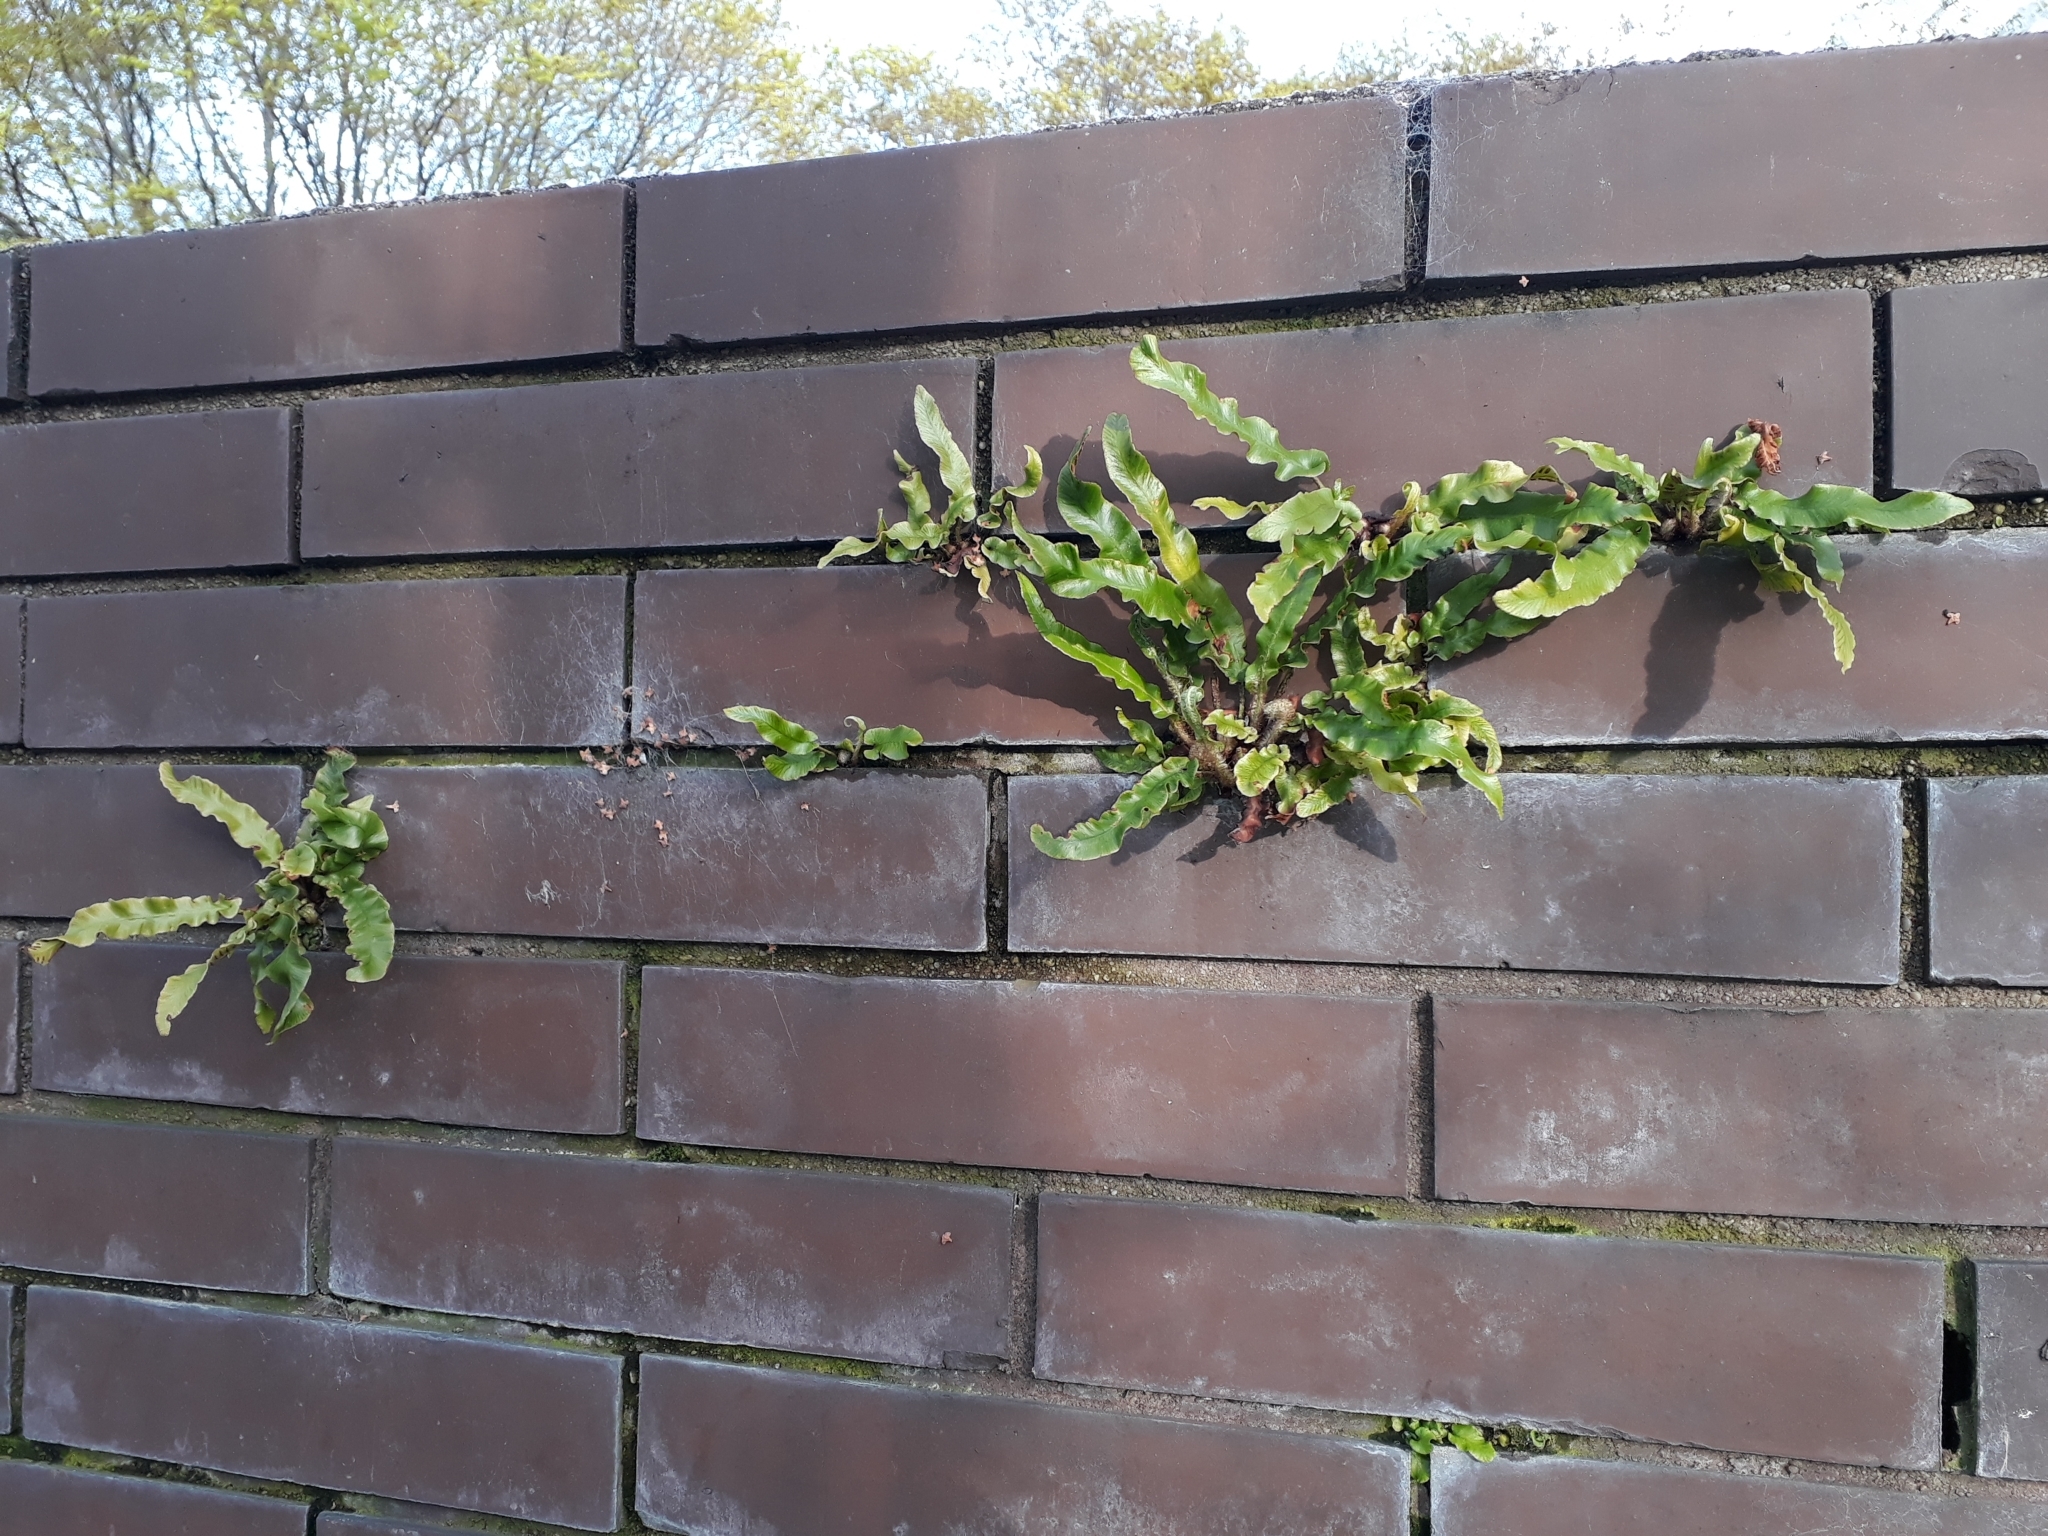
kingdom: Plantae
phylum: Tracheophyta
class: Polypodiopsida
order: Polypodiales
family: Aspleniaceae
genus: Asplenium
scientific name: Asplenium scolopendrium
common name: Hart's-tongue fern
